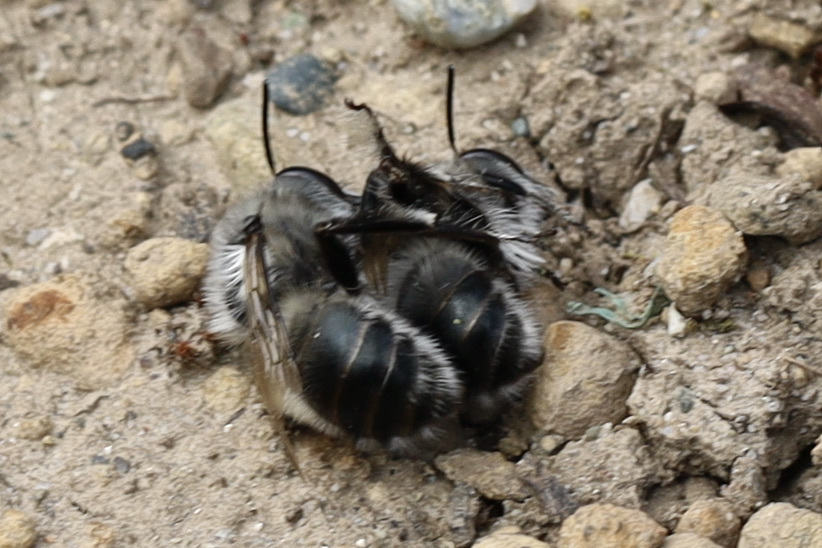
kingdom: Animalia
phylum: Arthropoda
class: Insecta
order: Hymenoptera
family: Apidae
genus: Anthophora
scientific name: Anthophora pacifica
